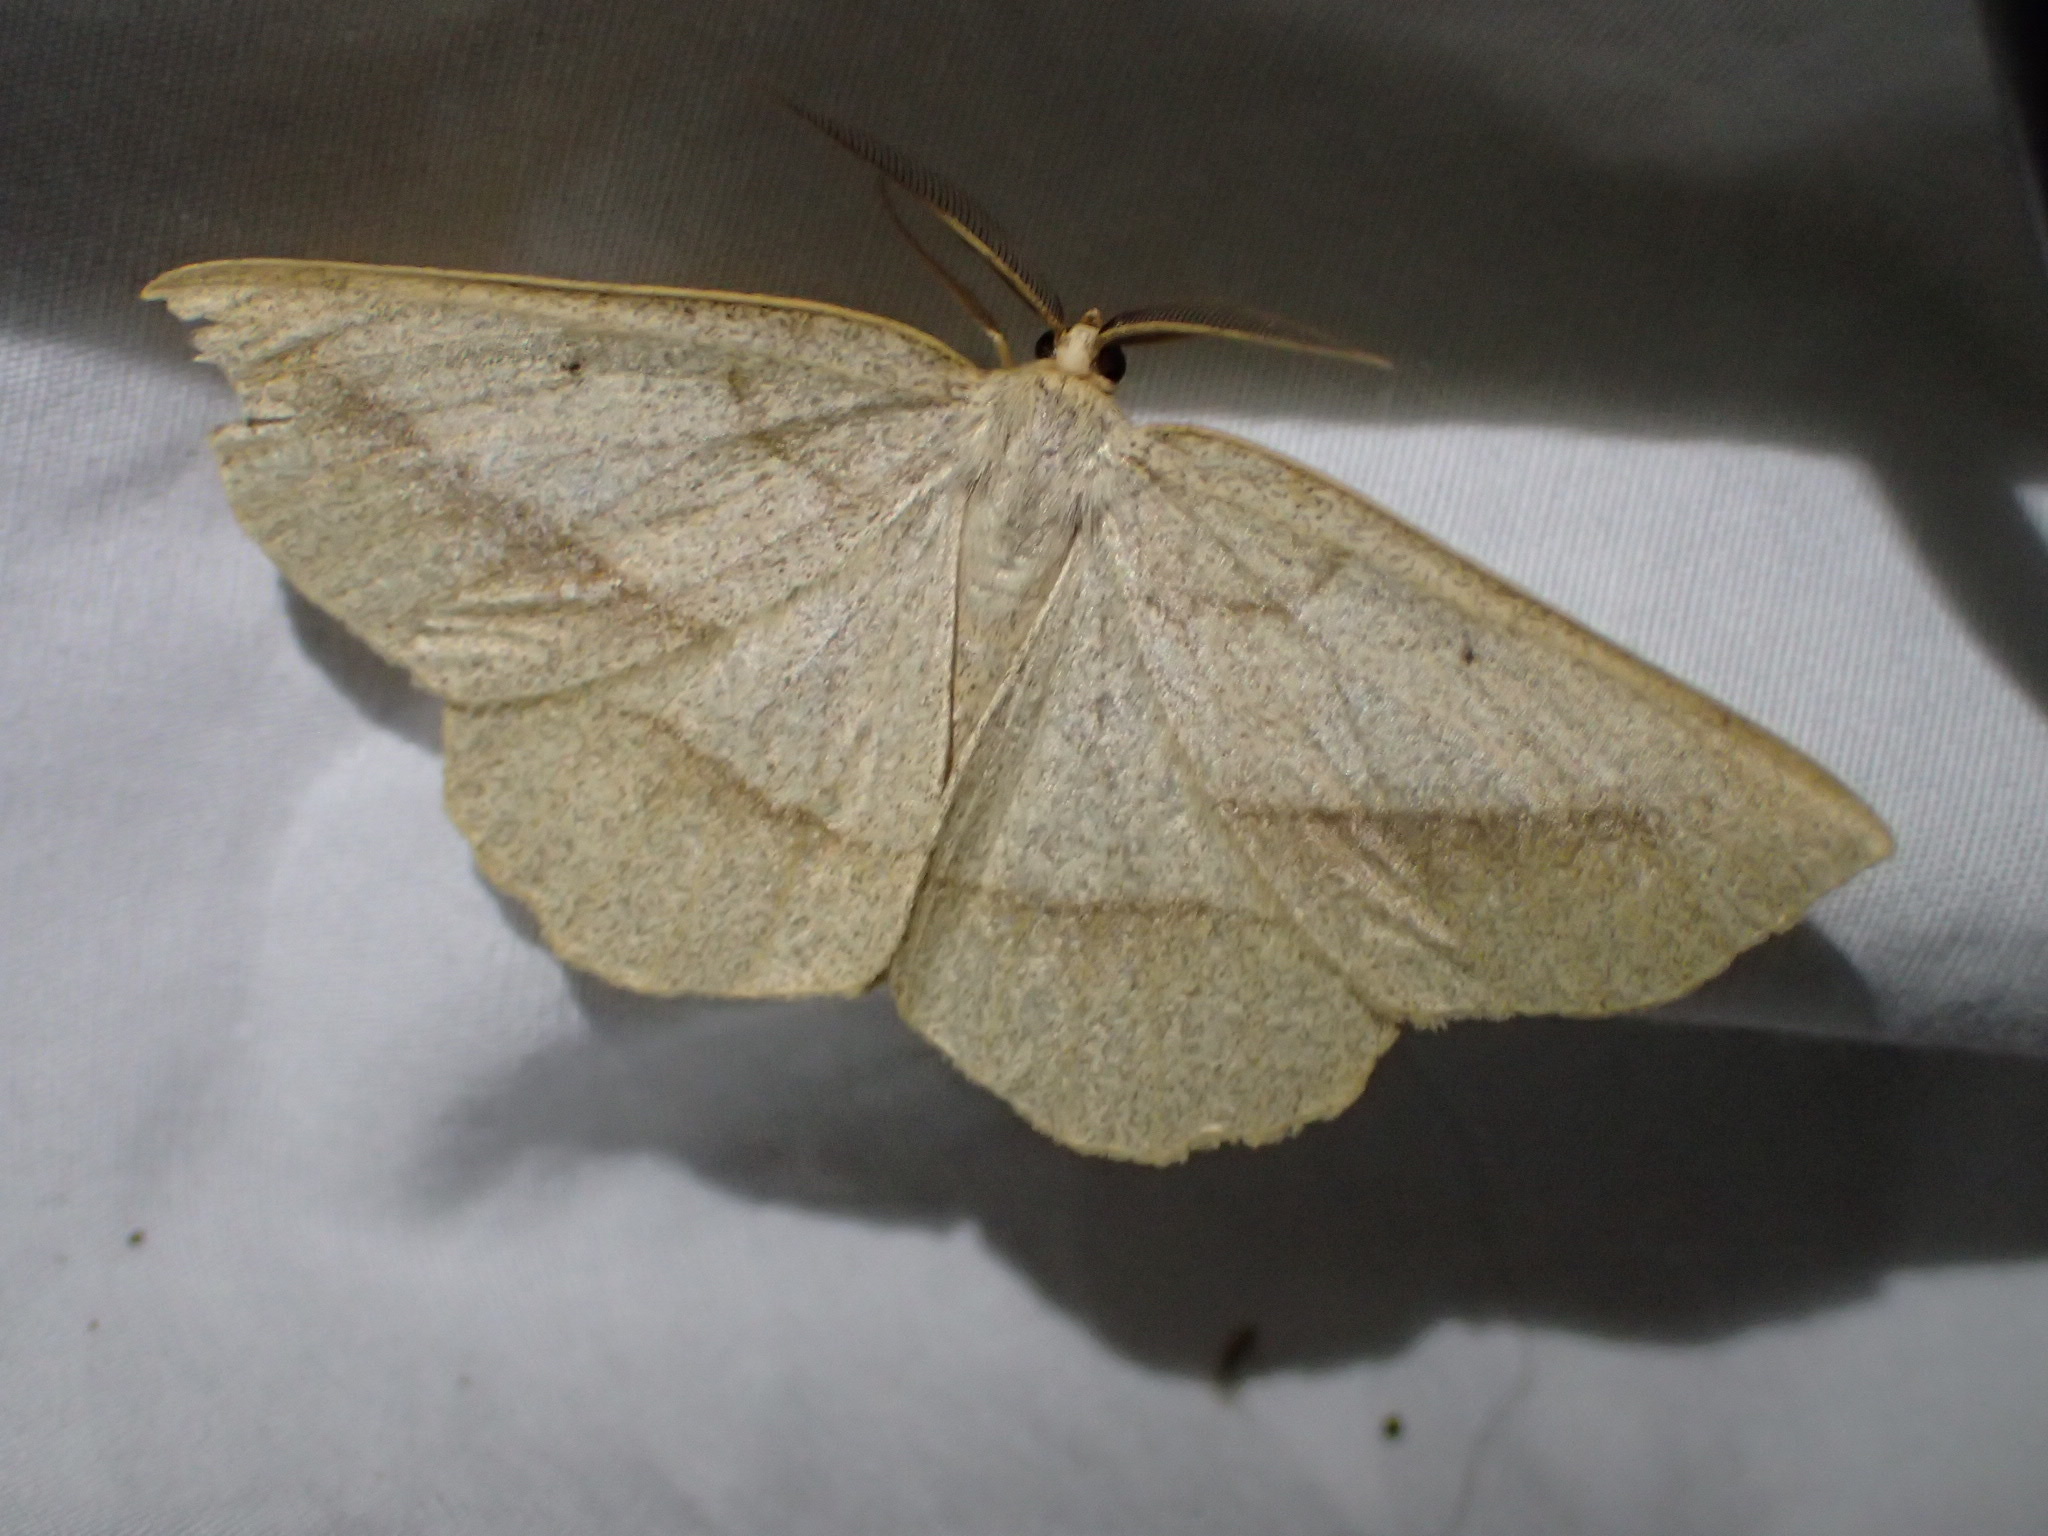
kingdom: Animalia
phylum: Arthropoda
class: Insecta
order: Lepidoptera
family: Geometridae
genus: Euchlaena
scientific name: Euchlaena irraria
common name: Least-marked euchlaena
